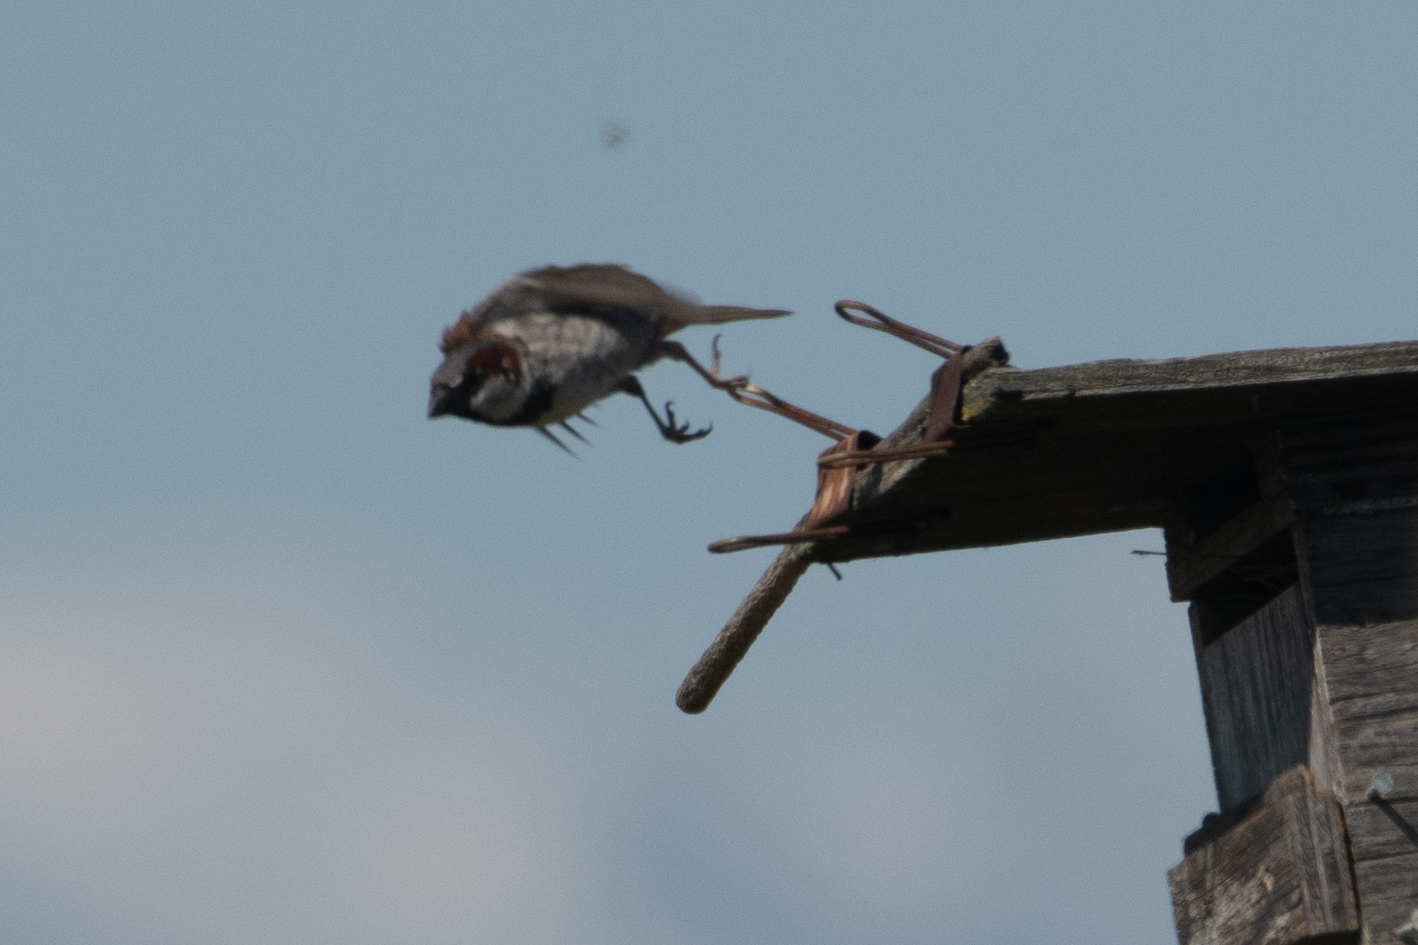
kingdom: Animalia
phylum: Chordata
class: Aves
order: Passeriformes
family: Passeridae
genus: Passer
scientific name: Passer domesticus
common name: House sparrow
